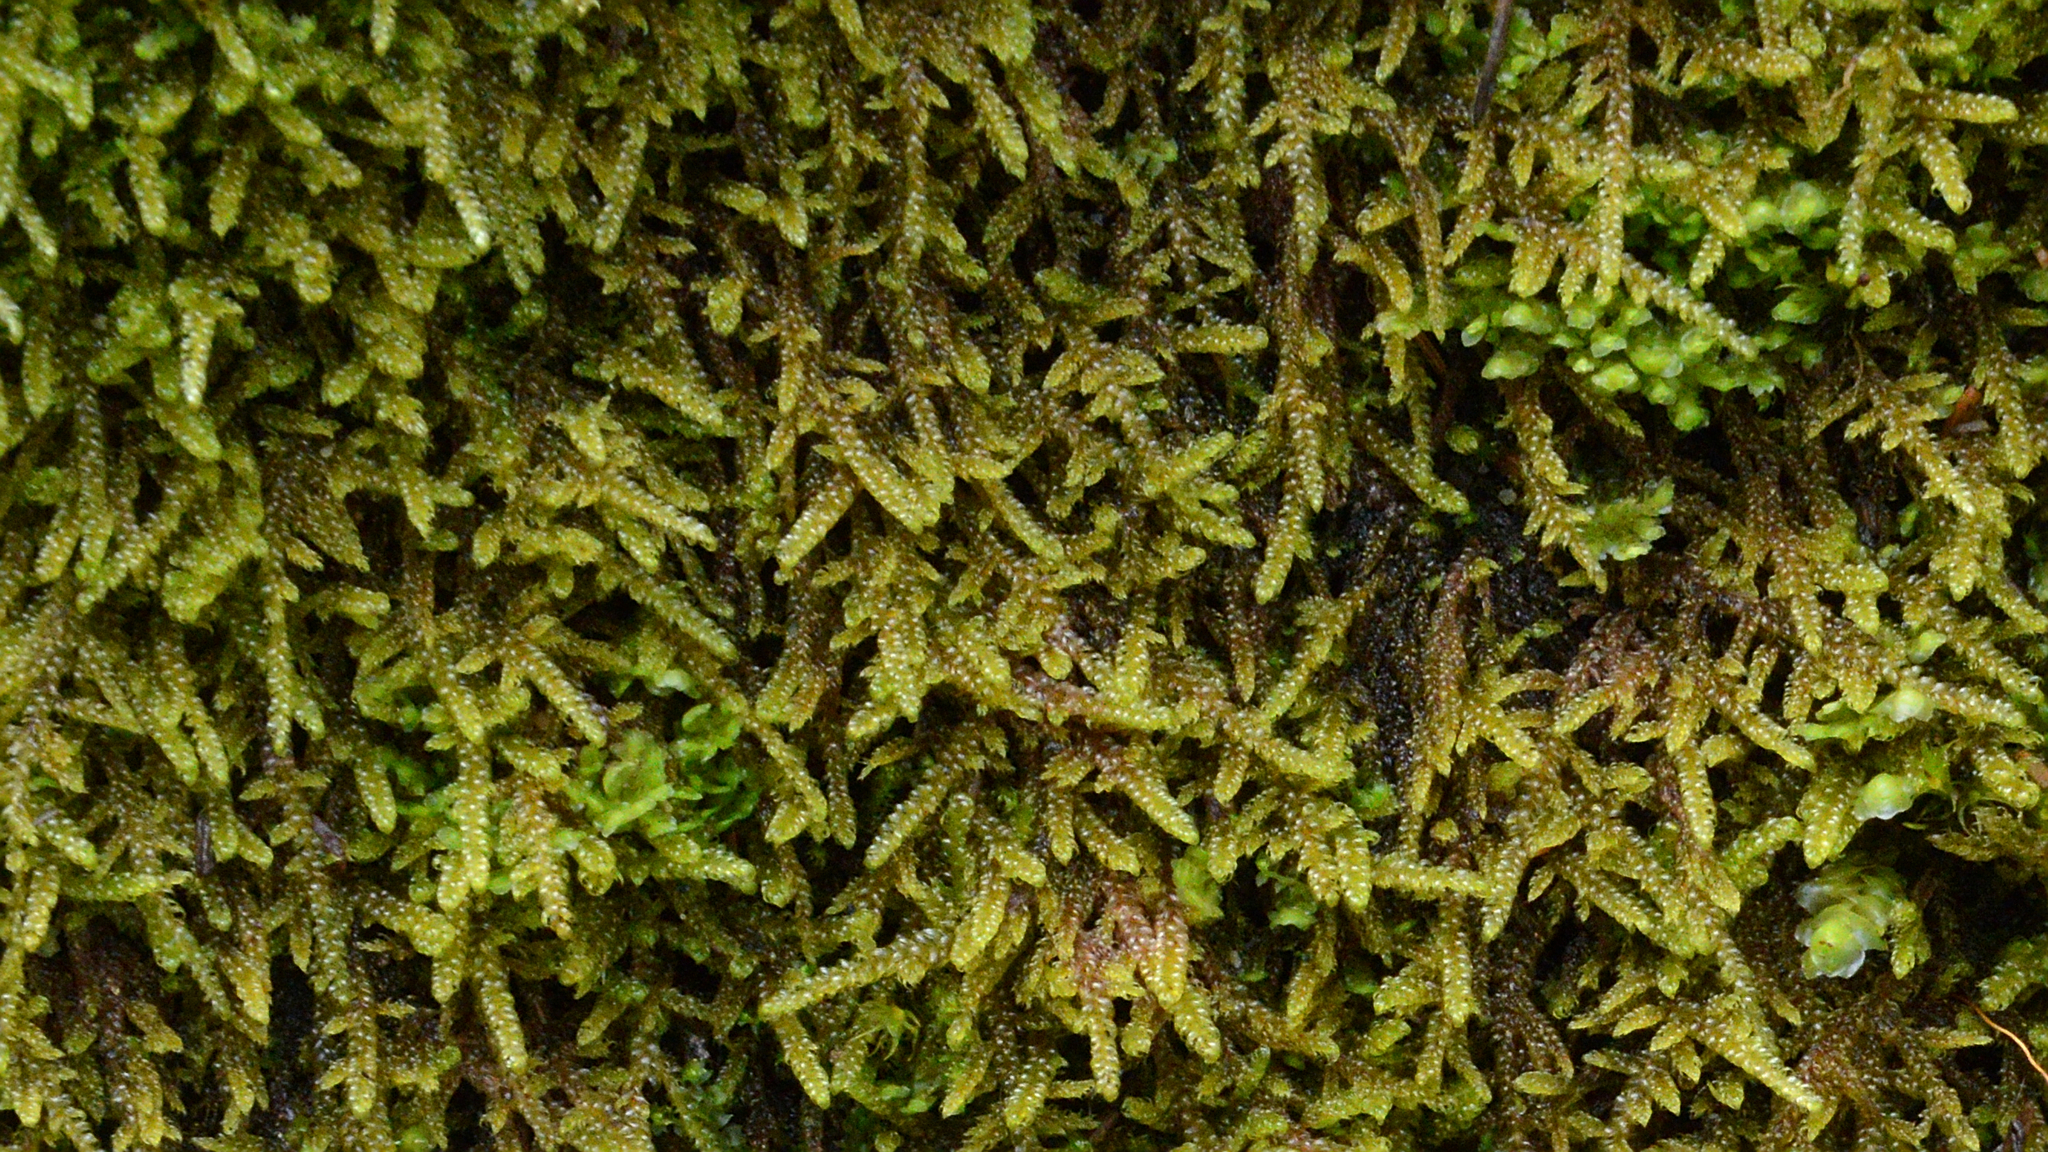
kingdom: Plantae
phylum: Bryophyta
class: Bryopsida
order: Hypnales
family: Hypnaceae
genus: Hypnum
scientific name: Hypnum cupressiforme
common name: Cypress-leaved plait-moss
